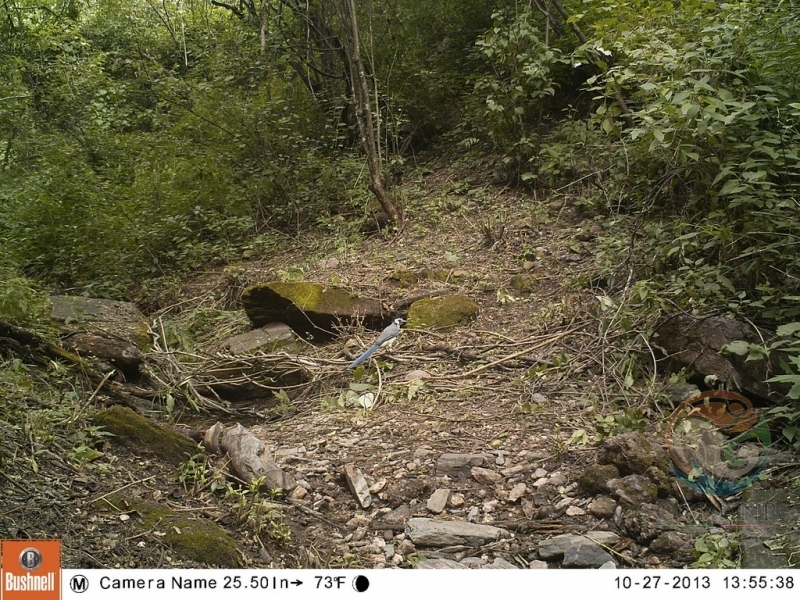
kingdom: Animalia
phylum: Chordata
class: Aves
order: Passeriformes
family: Corvidae
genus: Calocitta
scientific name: Calocitta formosa
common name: White-throated magpie-jay
